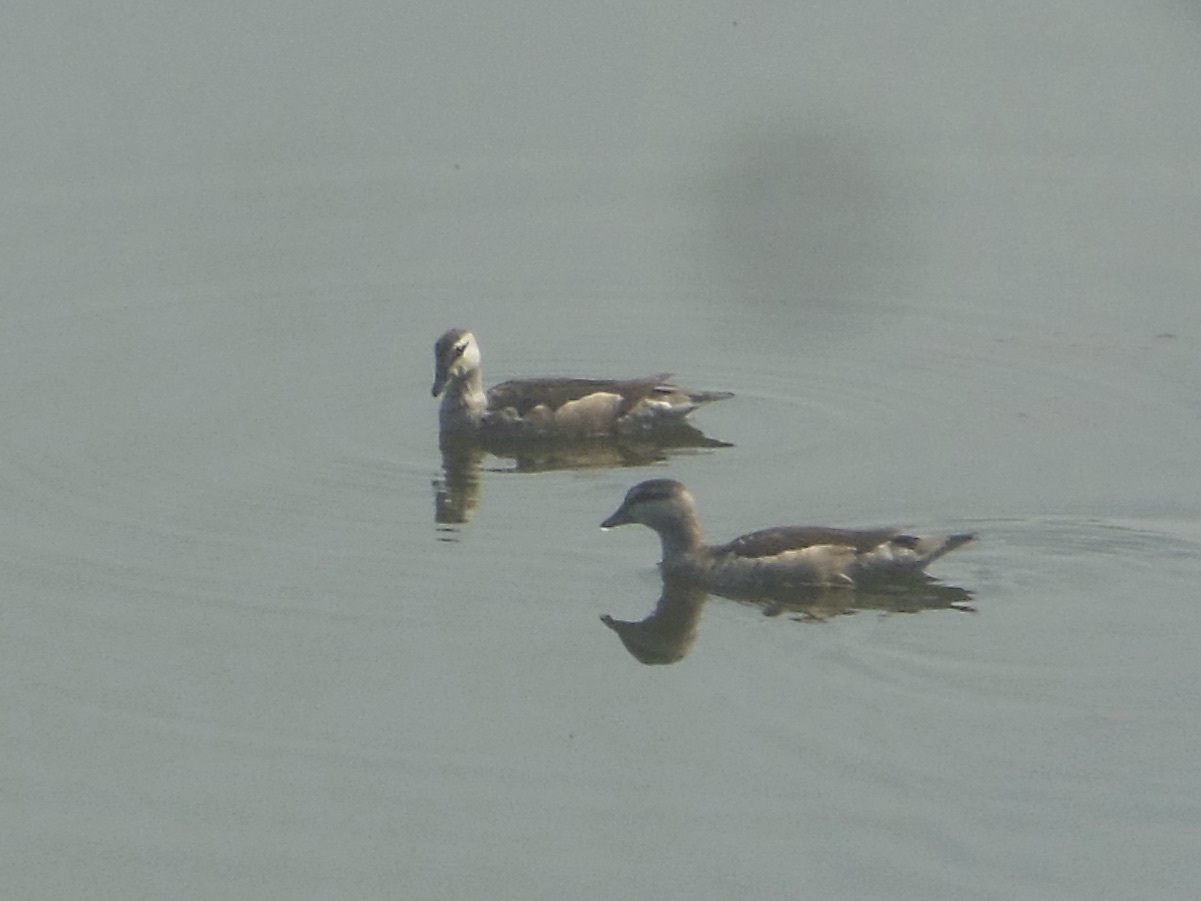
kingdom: Animalia
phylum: Chordata
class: Aves
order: Anseriformes
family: Anatidae
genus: Nettapus
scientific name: Nettapus coromandelianus
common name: Cotton pygmy-goose
